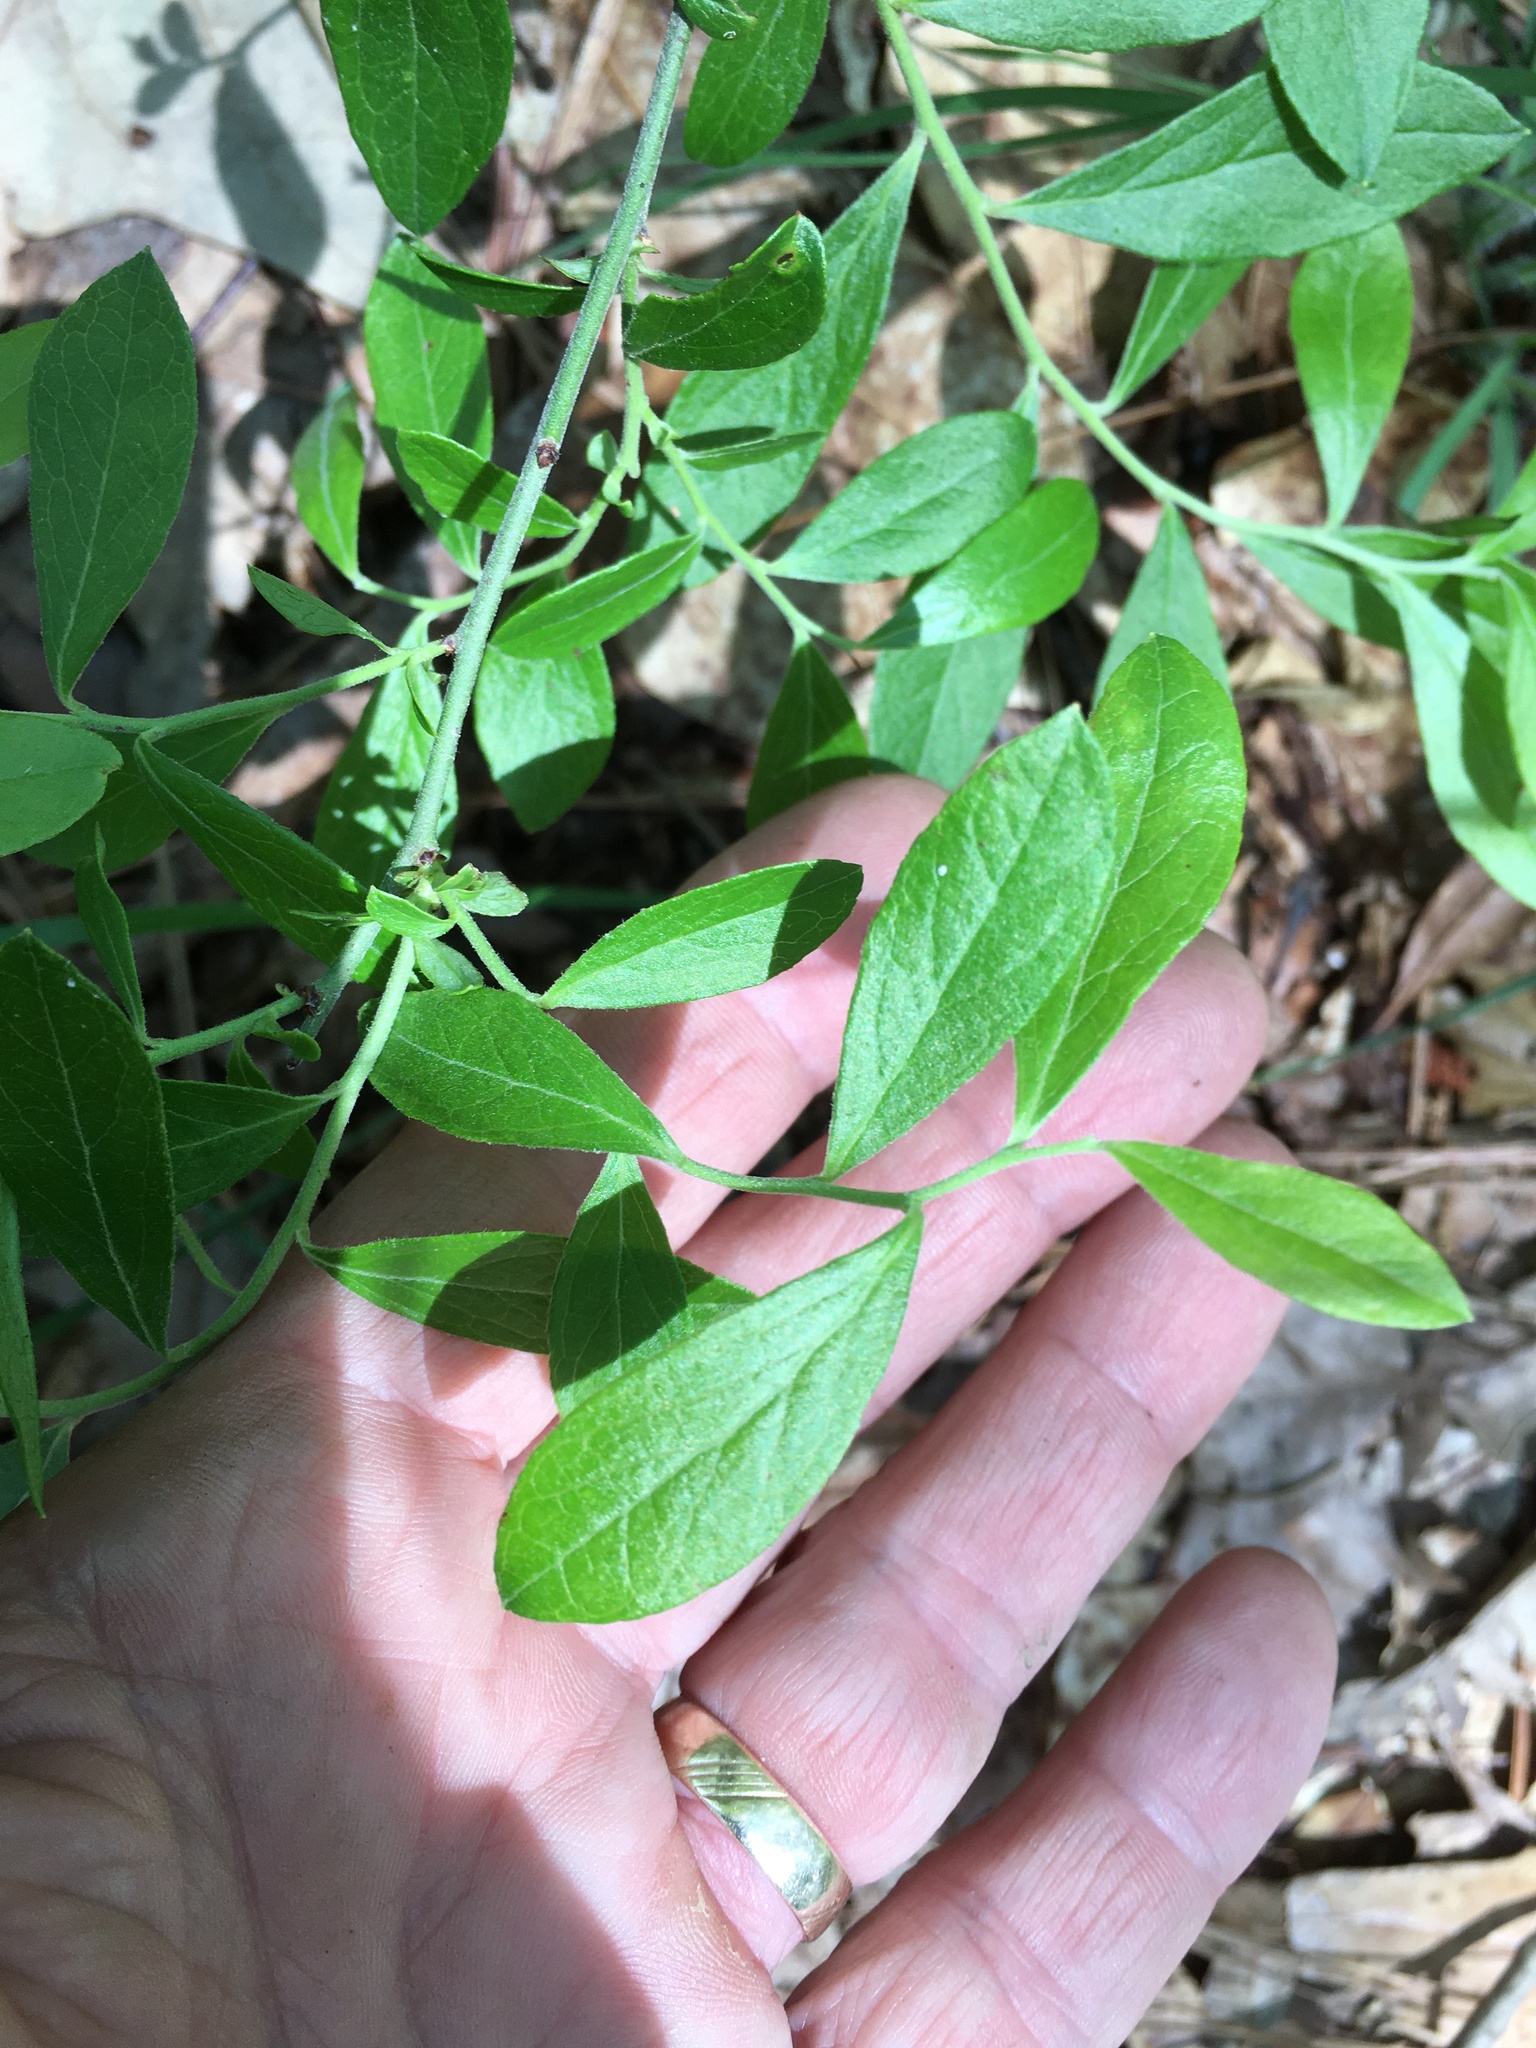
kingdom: Plantae
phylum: Tracheophyta
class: Magnoliopsida
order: Ericales
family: Ericaceae
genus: Vaccinium
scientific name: Vaccinium tenellum
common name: Southern blueberry
